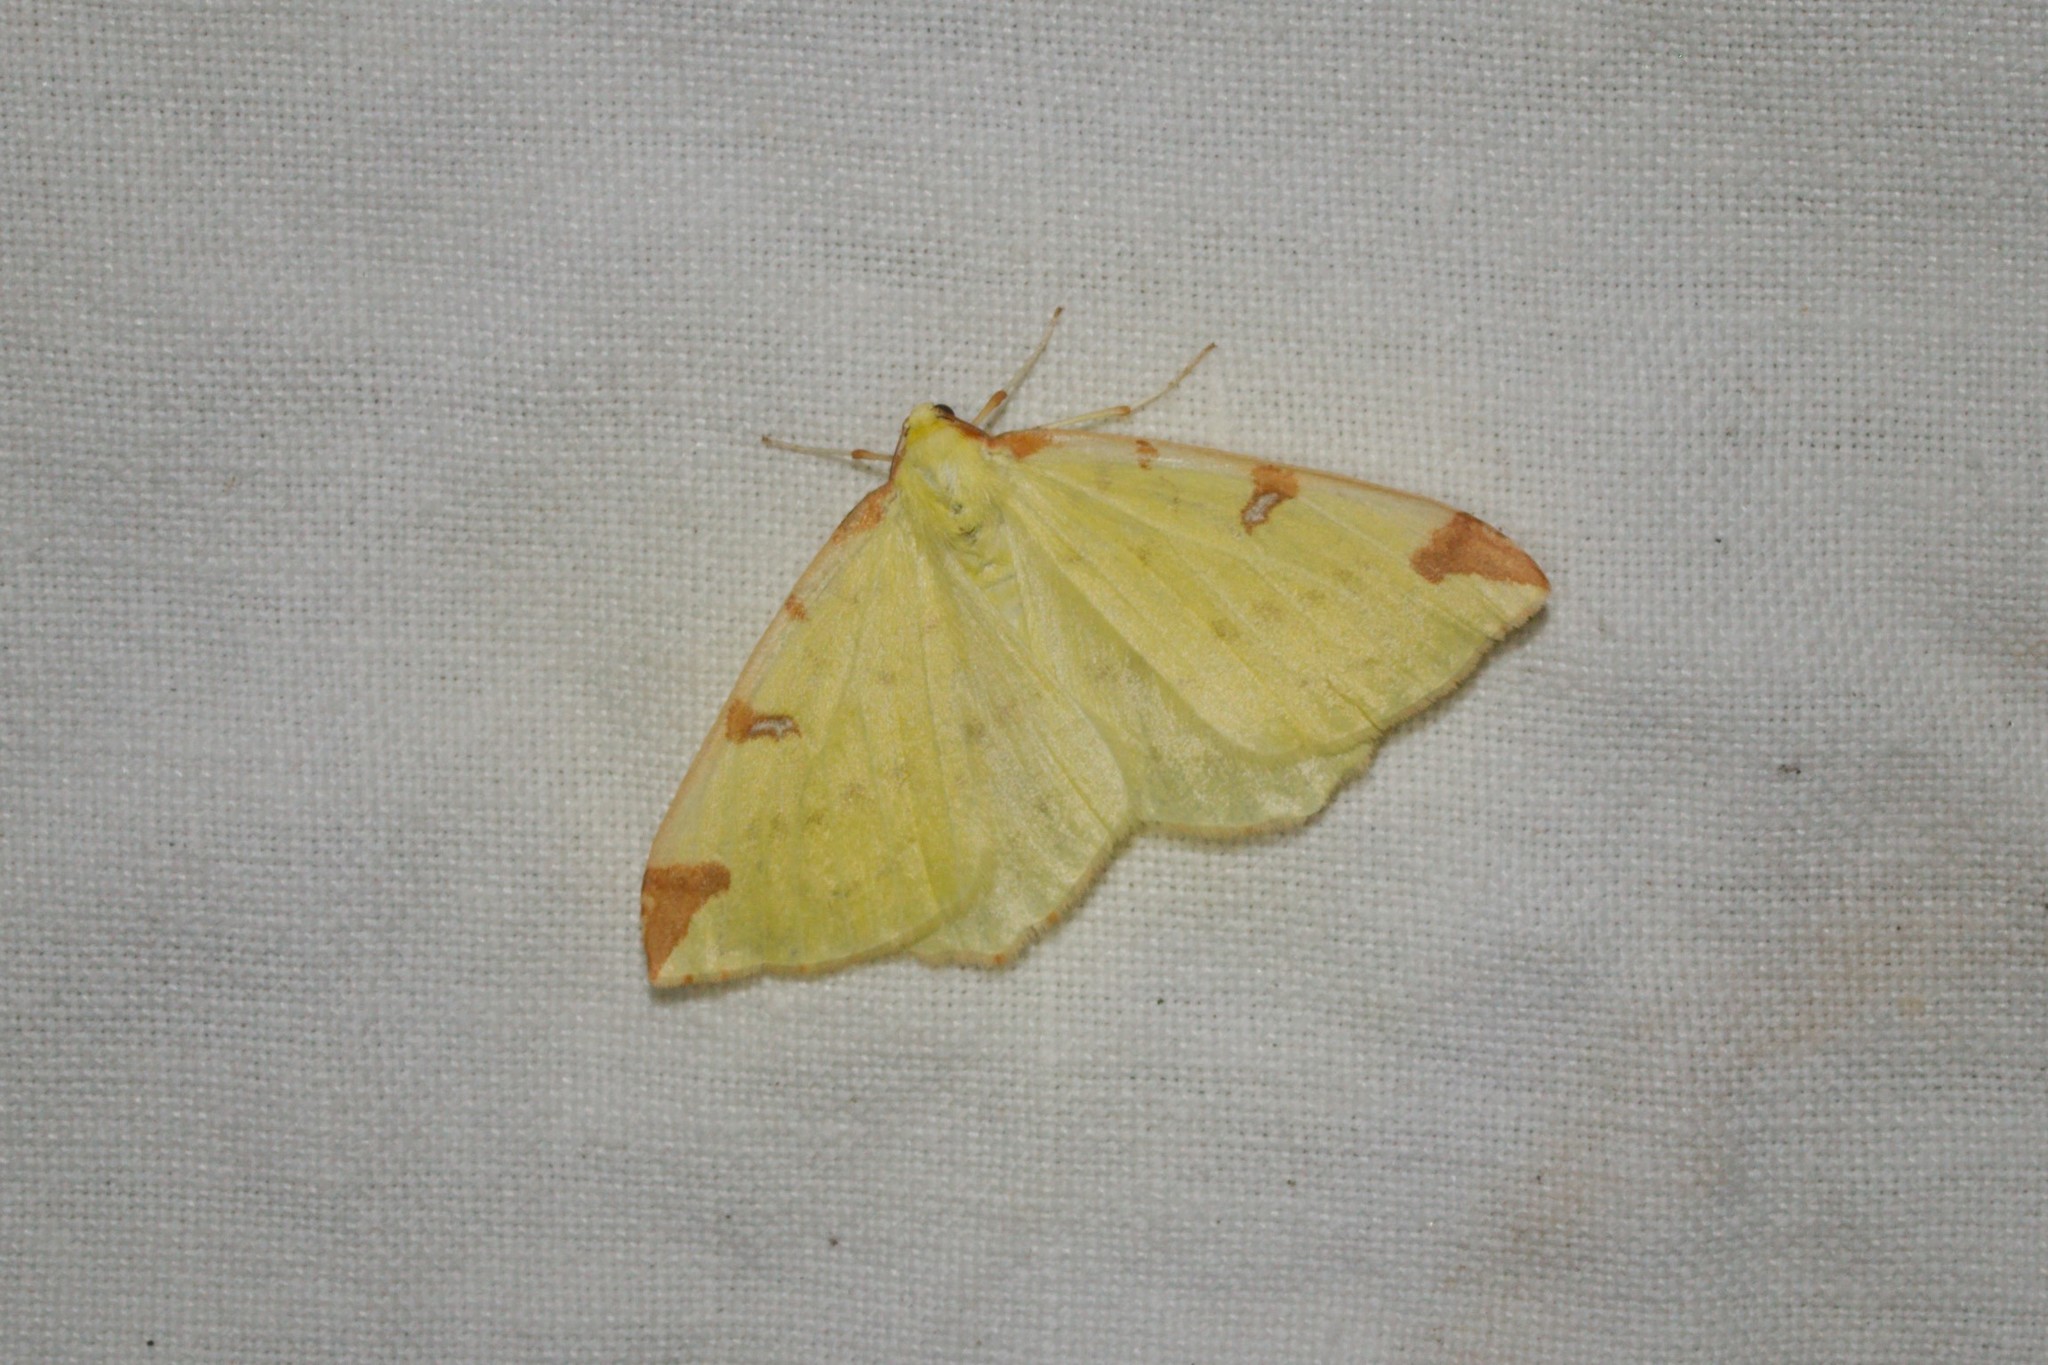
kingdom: Animalia
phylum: Arthropoda
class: Insecta
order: Lepidoptera
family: Geometridae
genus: Opisthograptis
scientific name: Opisthograptis luteolata
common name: Brimstone moth
